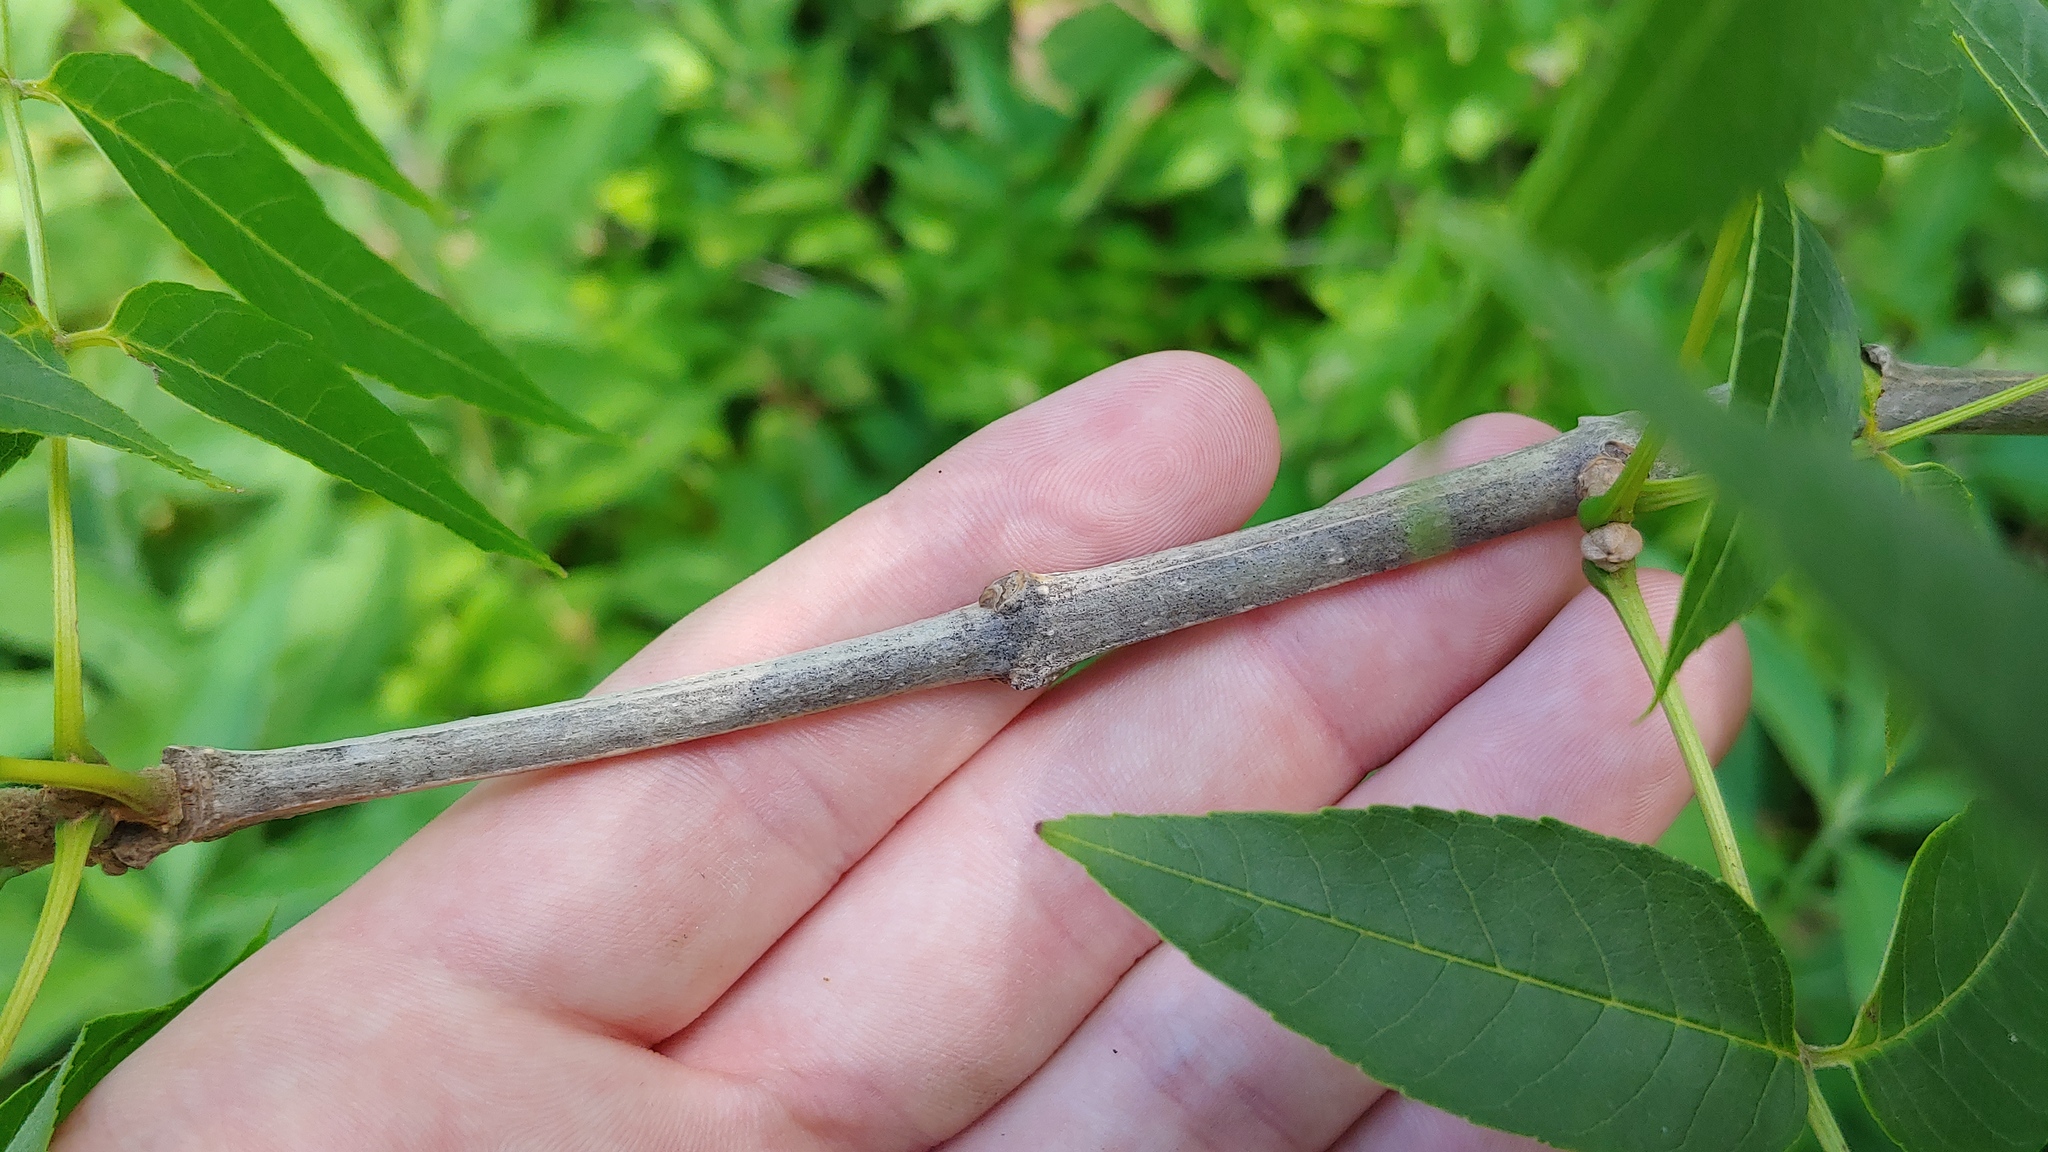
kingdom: Plantae
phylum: Tracheophyta
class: Magnoliopsida
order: Lamiales
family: Oleaceae
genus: Fraxinus
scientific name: Fraxinus quadrangulata
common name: Blue ash
